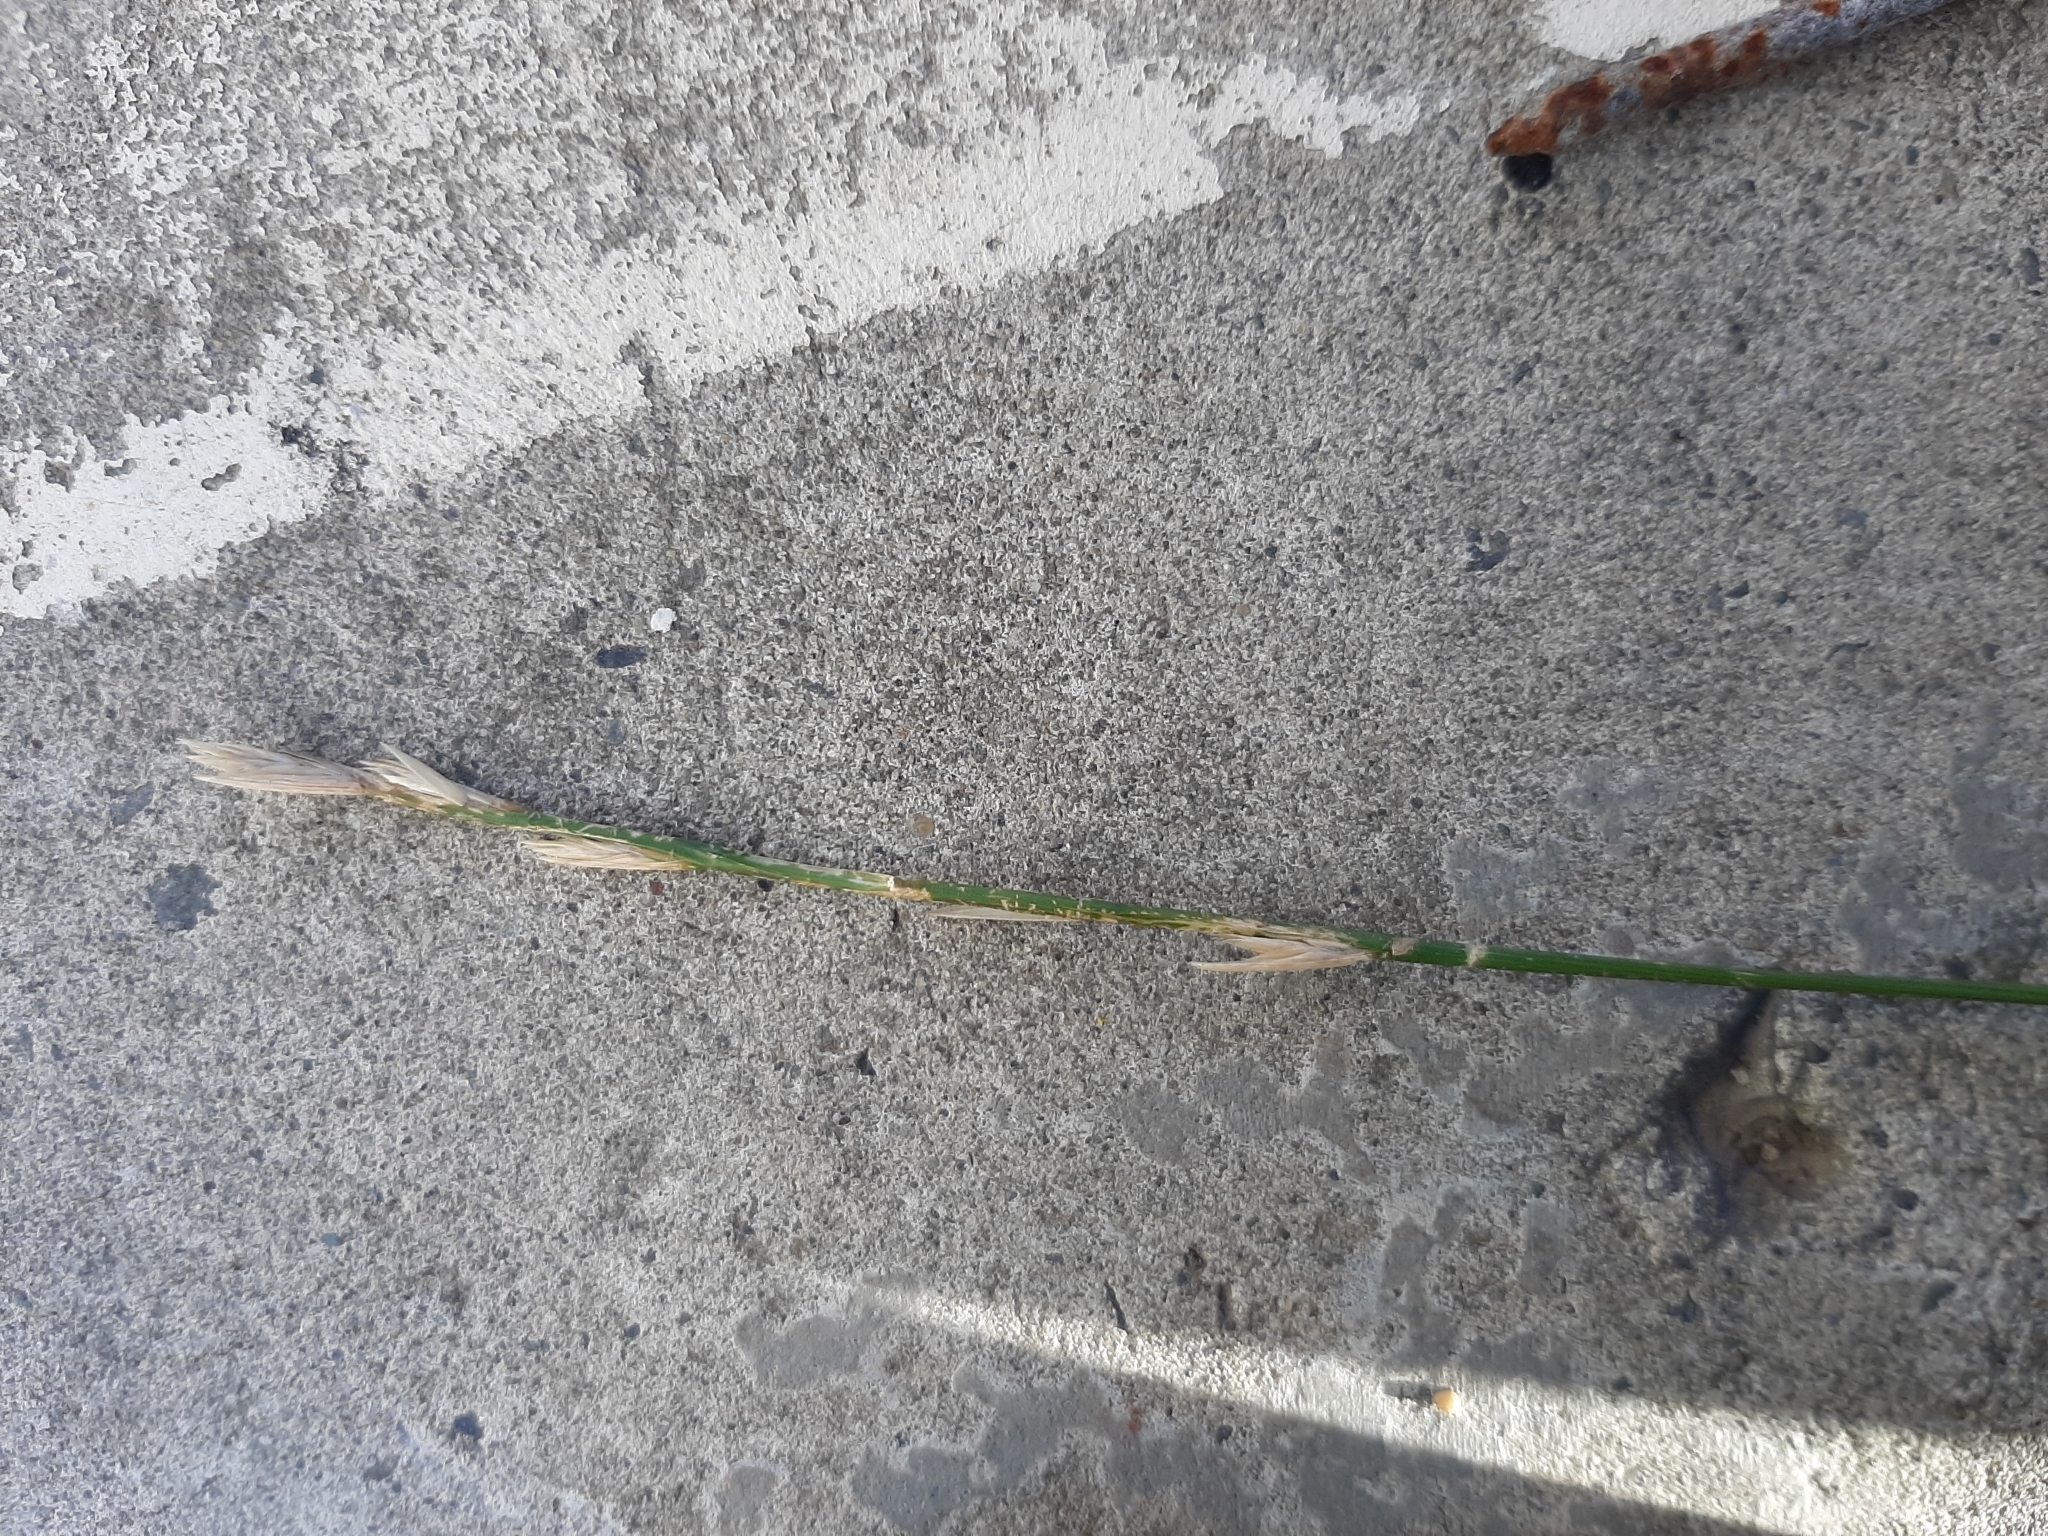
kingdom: Plantae
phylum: Tracheophyta
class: Liliopsida
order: Poales
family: Poaceae
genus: Lolium
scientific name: Lolium perenne
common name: Perennial ryegrass
